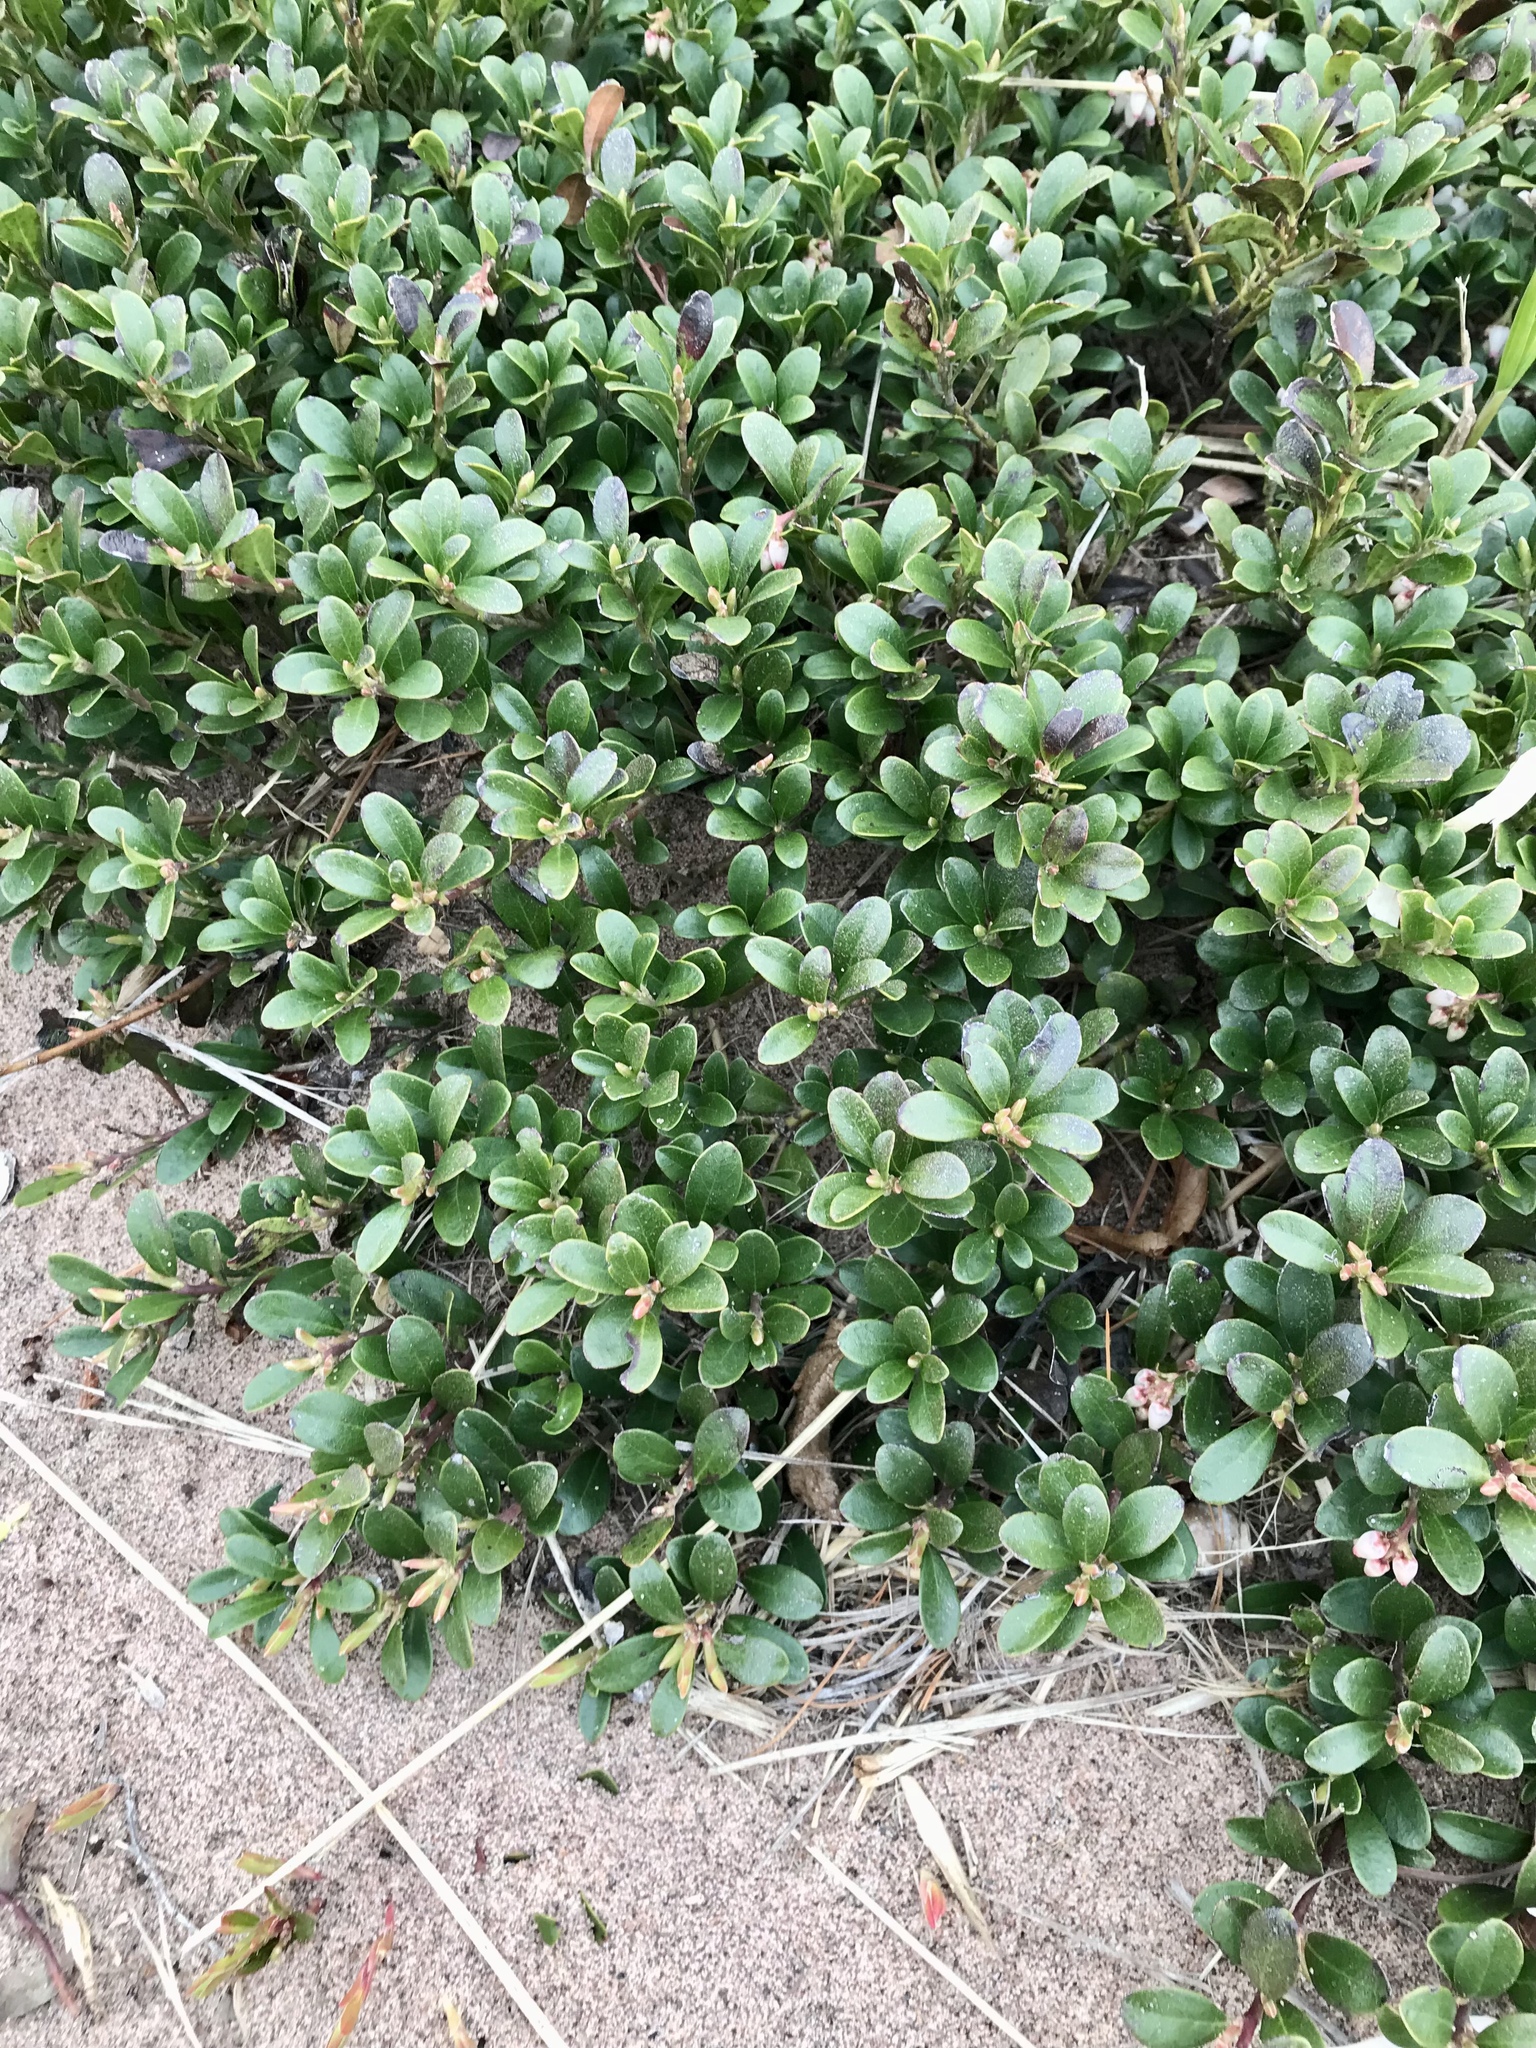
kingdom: Plantae
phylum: Tracheophyta
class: Magnoliopsida
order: Ericales
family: Ericaceae
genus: Arctostaphylos
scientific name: Arctostaphylos uva-ursi
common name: Bearberry
